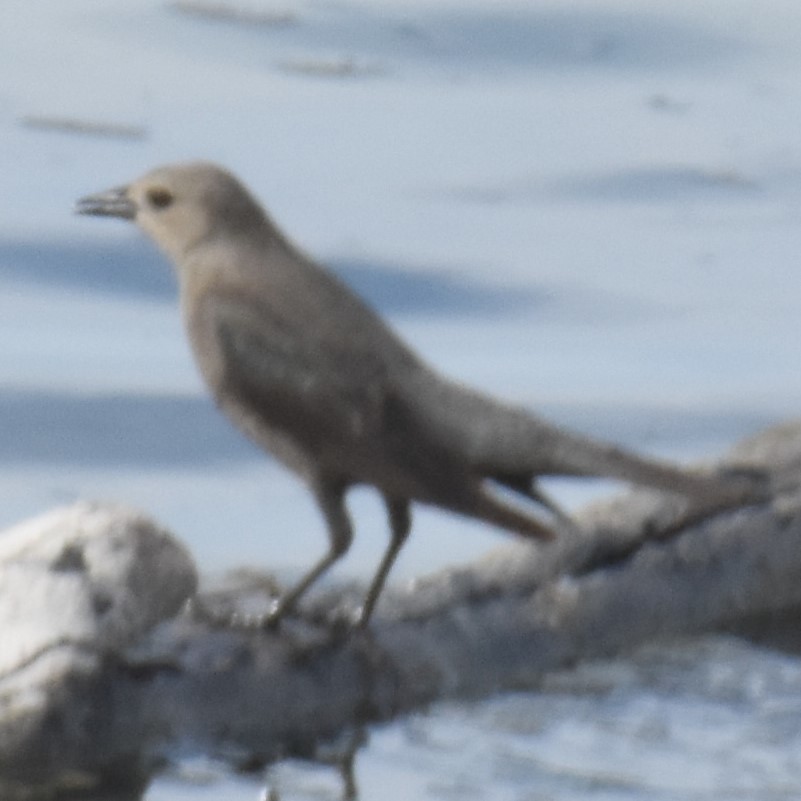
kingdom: Animalia
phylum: Chordata
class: Aves
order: Passeriformes
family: Icteridae
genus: Euphagus
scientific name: Euphagus cyanocephalus
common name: Brewer's blackbird
